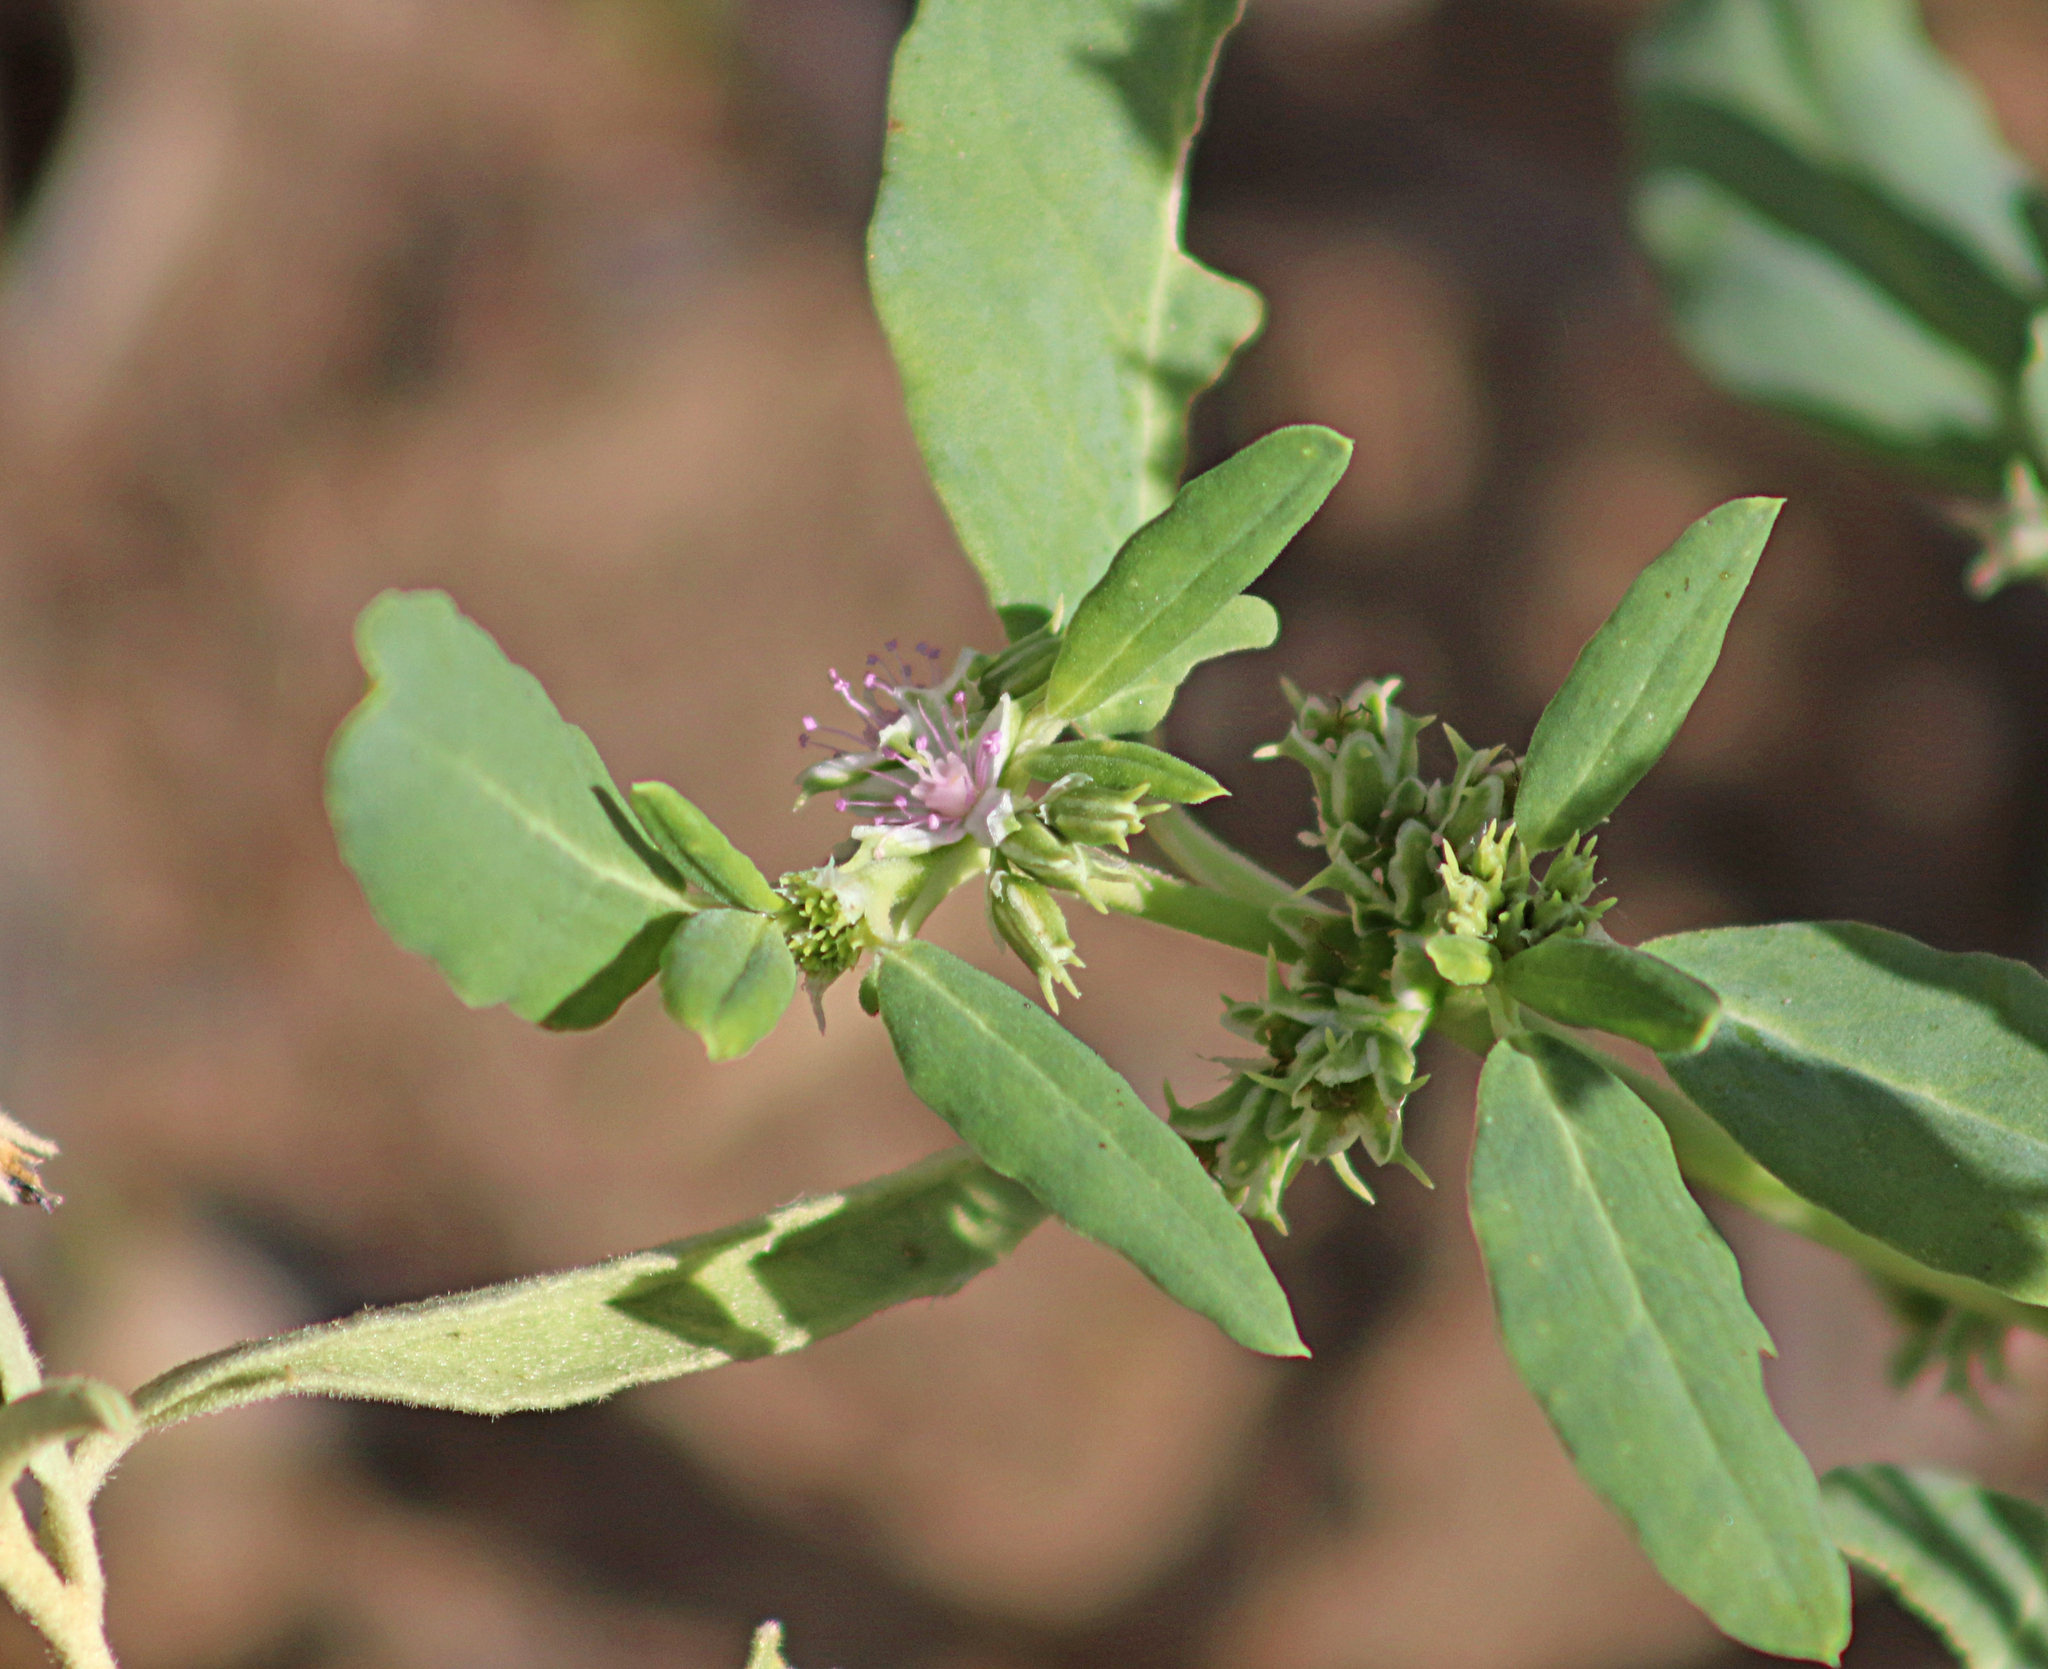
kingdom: Plantae
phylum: Tracheophyta
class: Magnoliopsida
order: Caryophyllales
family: Aizoaceae
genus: Zaleya
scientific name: Zaleya galericulata
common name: Garden-pigweed
